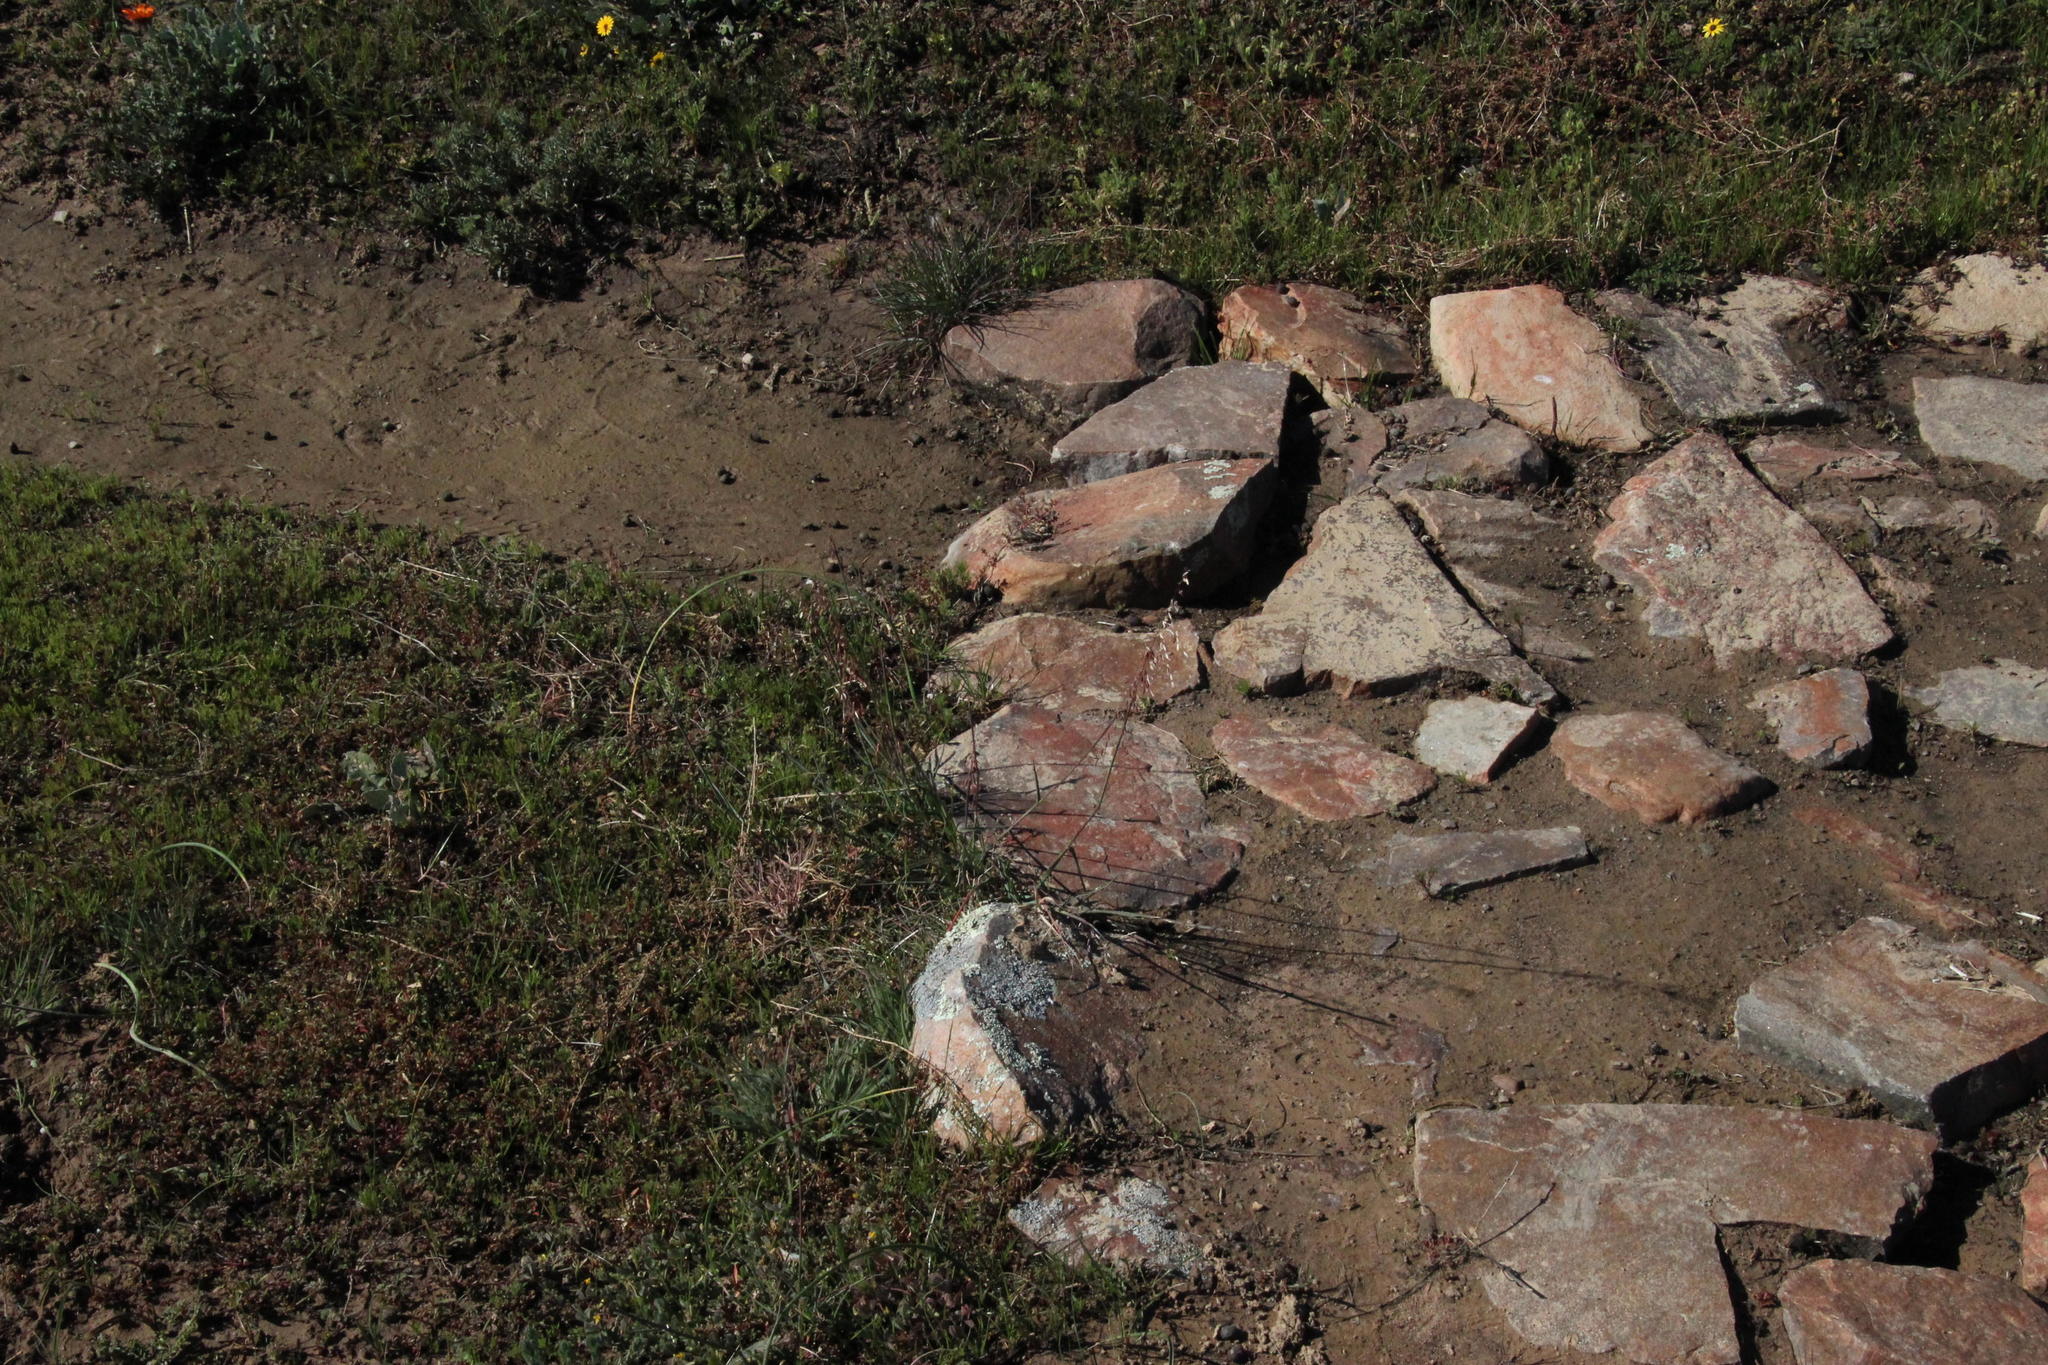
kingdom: Plantae
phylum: Tracheophyta
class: Liliopsida
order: Poales
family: Poaceae
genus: Ehrharta
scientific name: Ehrharta calycina
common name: Perennial veldtgrass
